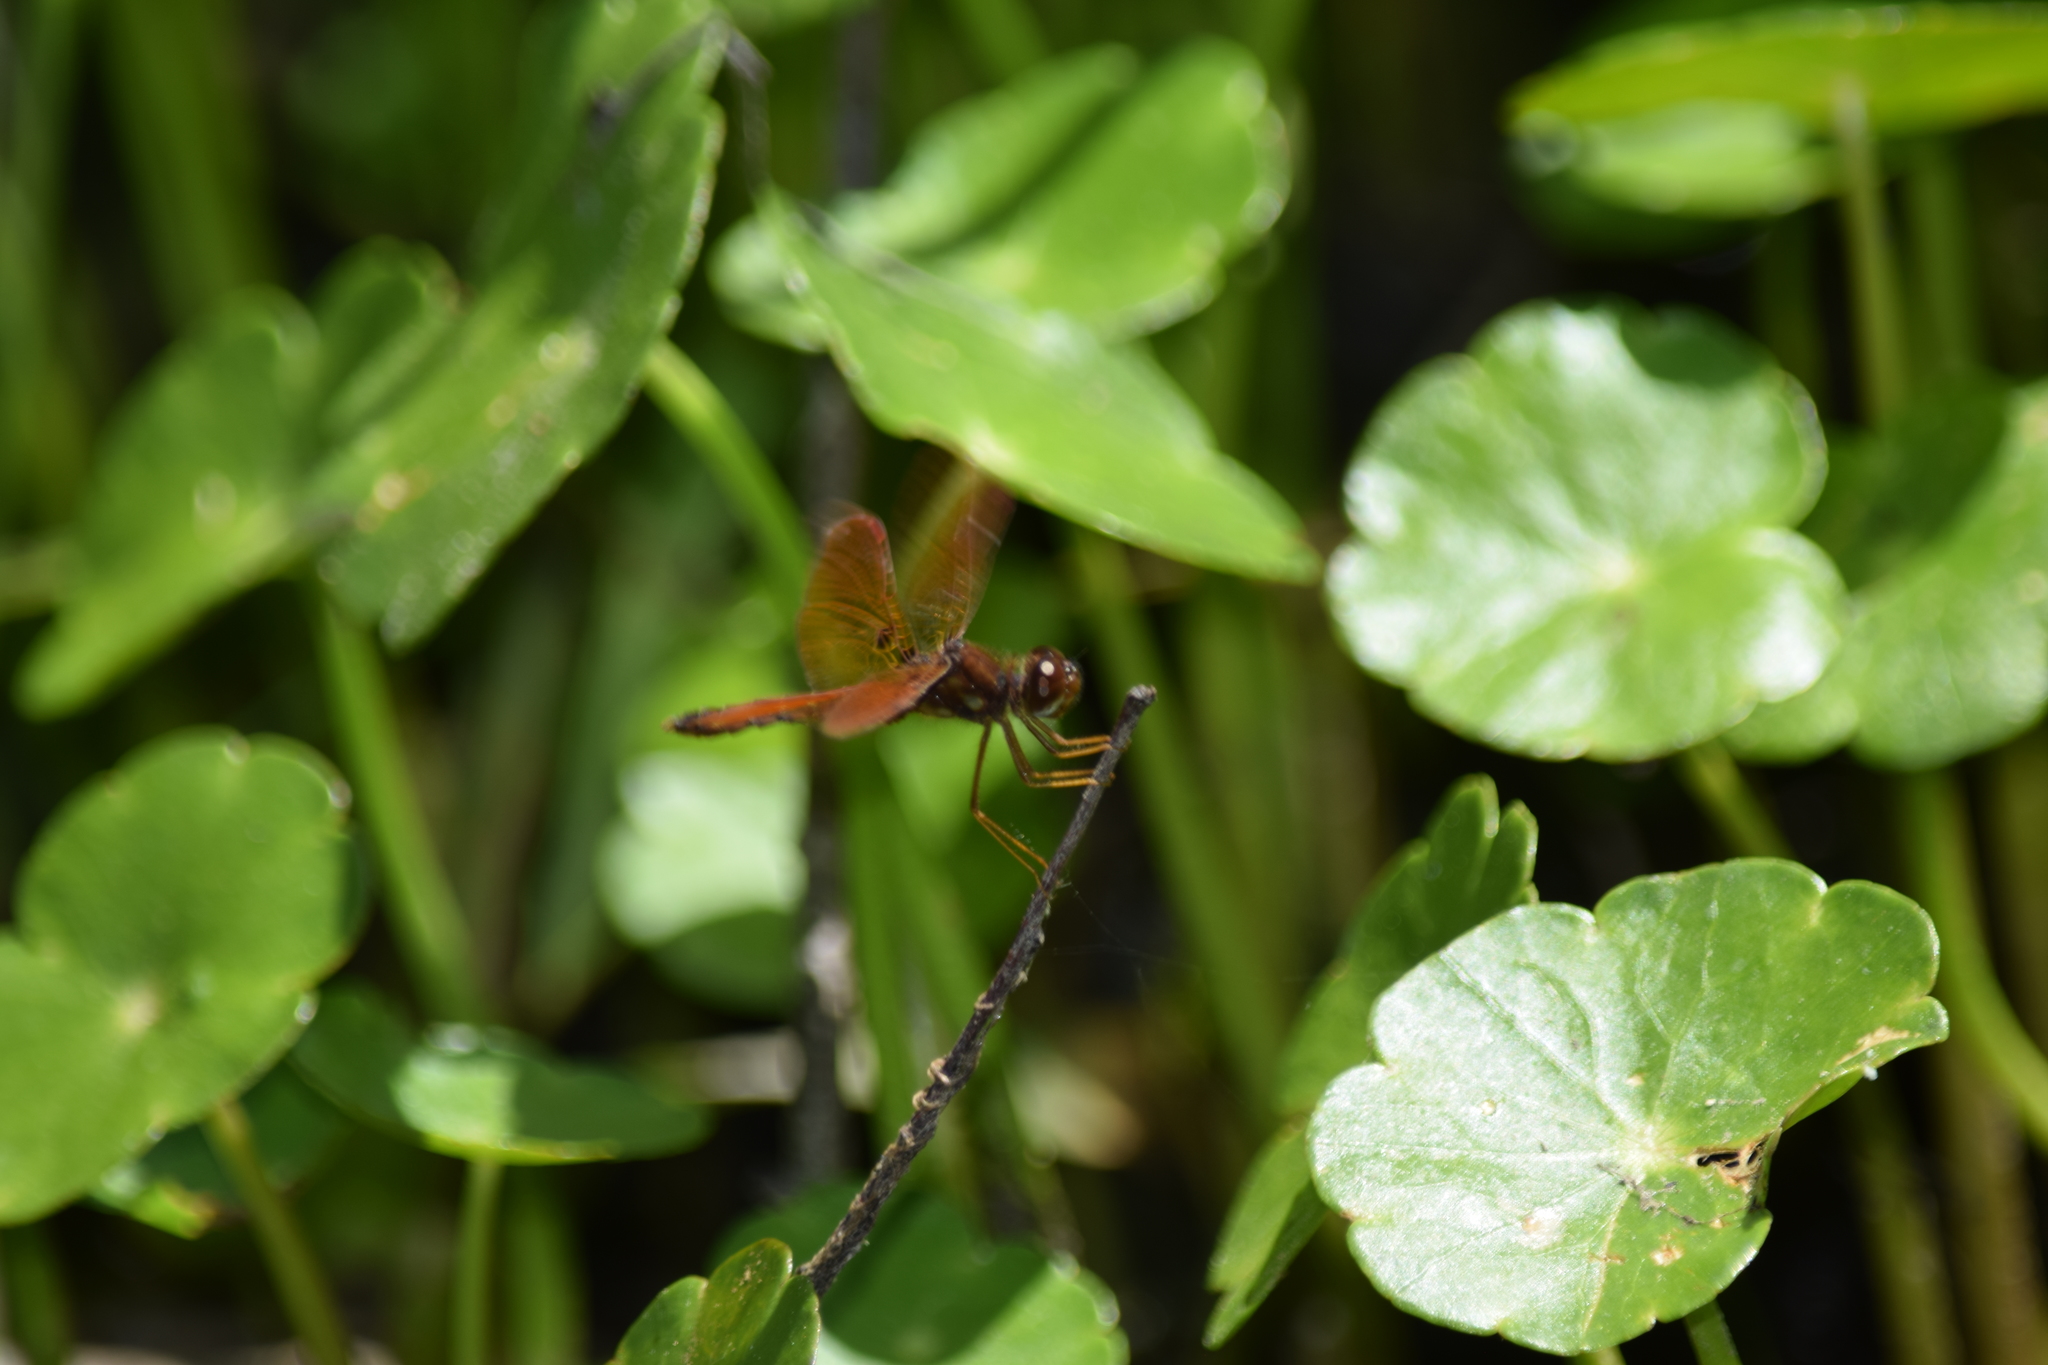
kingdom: Animalia
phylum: Arthropoda
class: Insecta
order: Odonata
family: Libellulidae
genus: Perithemis
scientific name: Perithemis tenera
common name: Eastern amberwing
